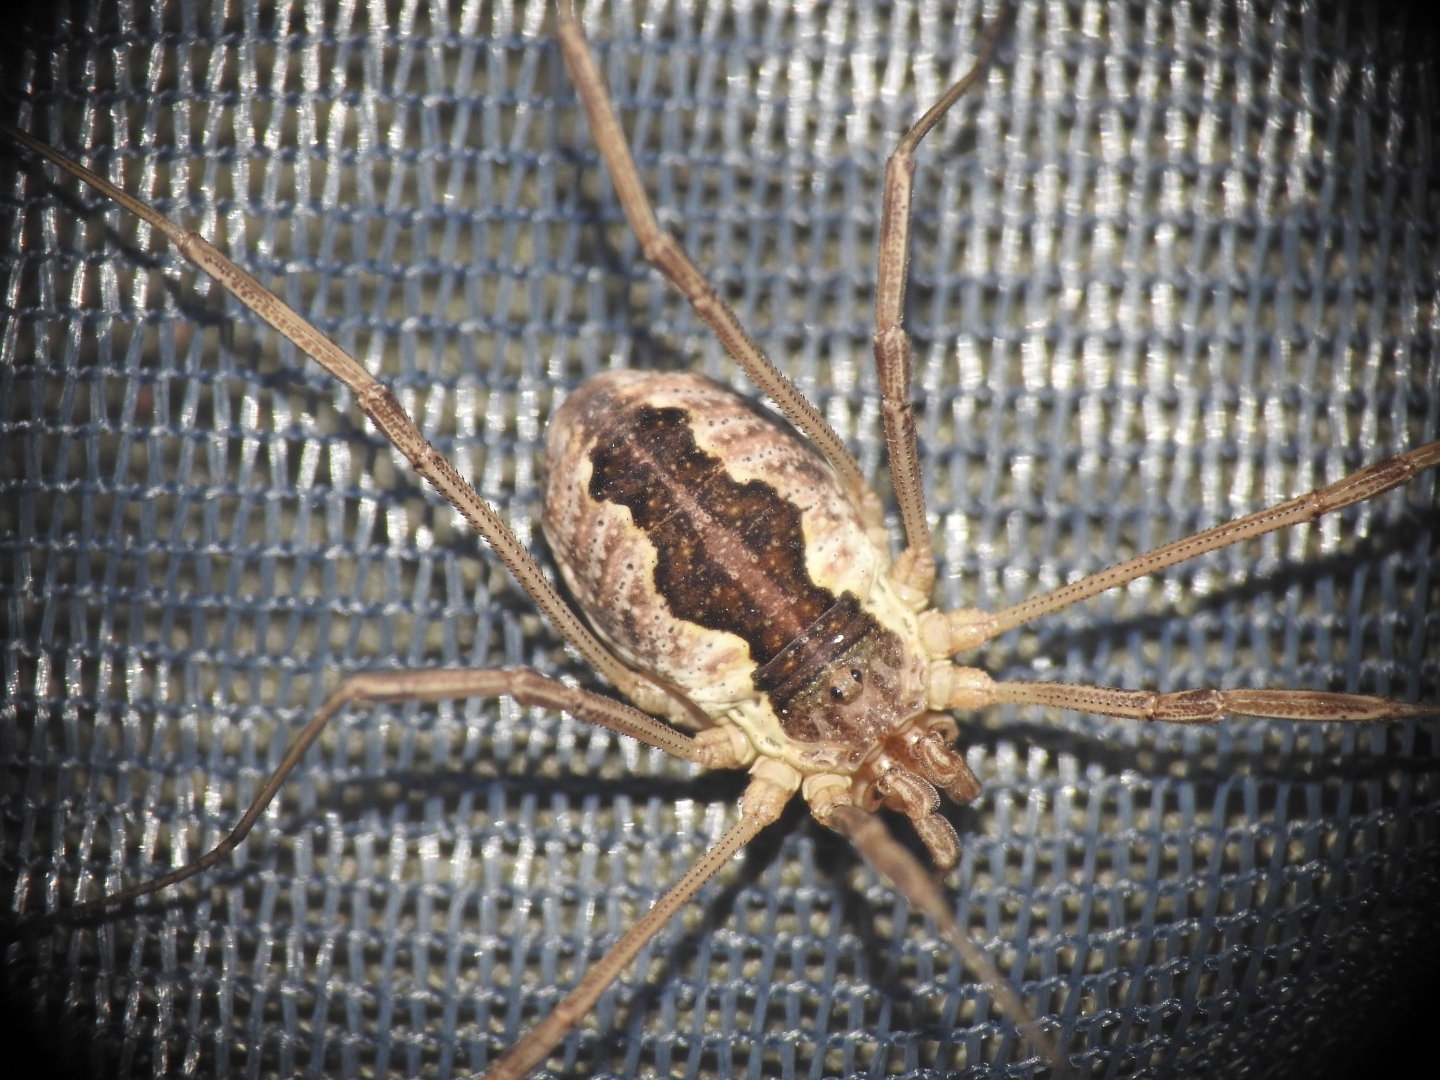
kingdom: Animalia
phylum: Arthropoda
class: Arachnida
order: Opiliones
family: Phalangiidae
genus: Mitopus
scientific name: Mitopus morio
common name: Saddleback harvestman
